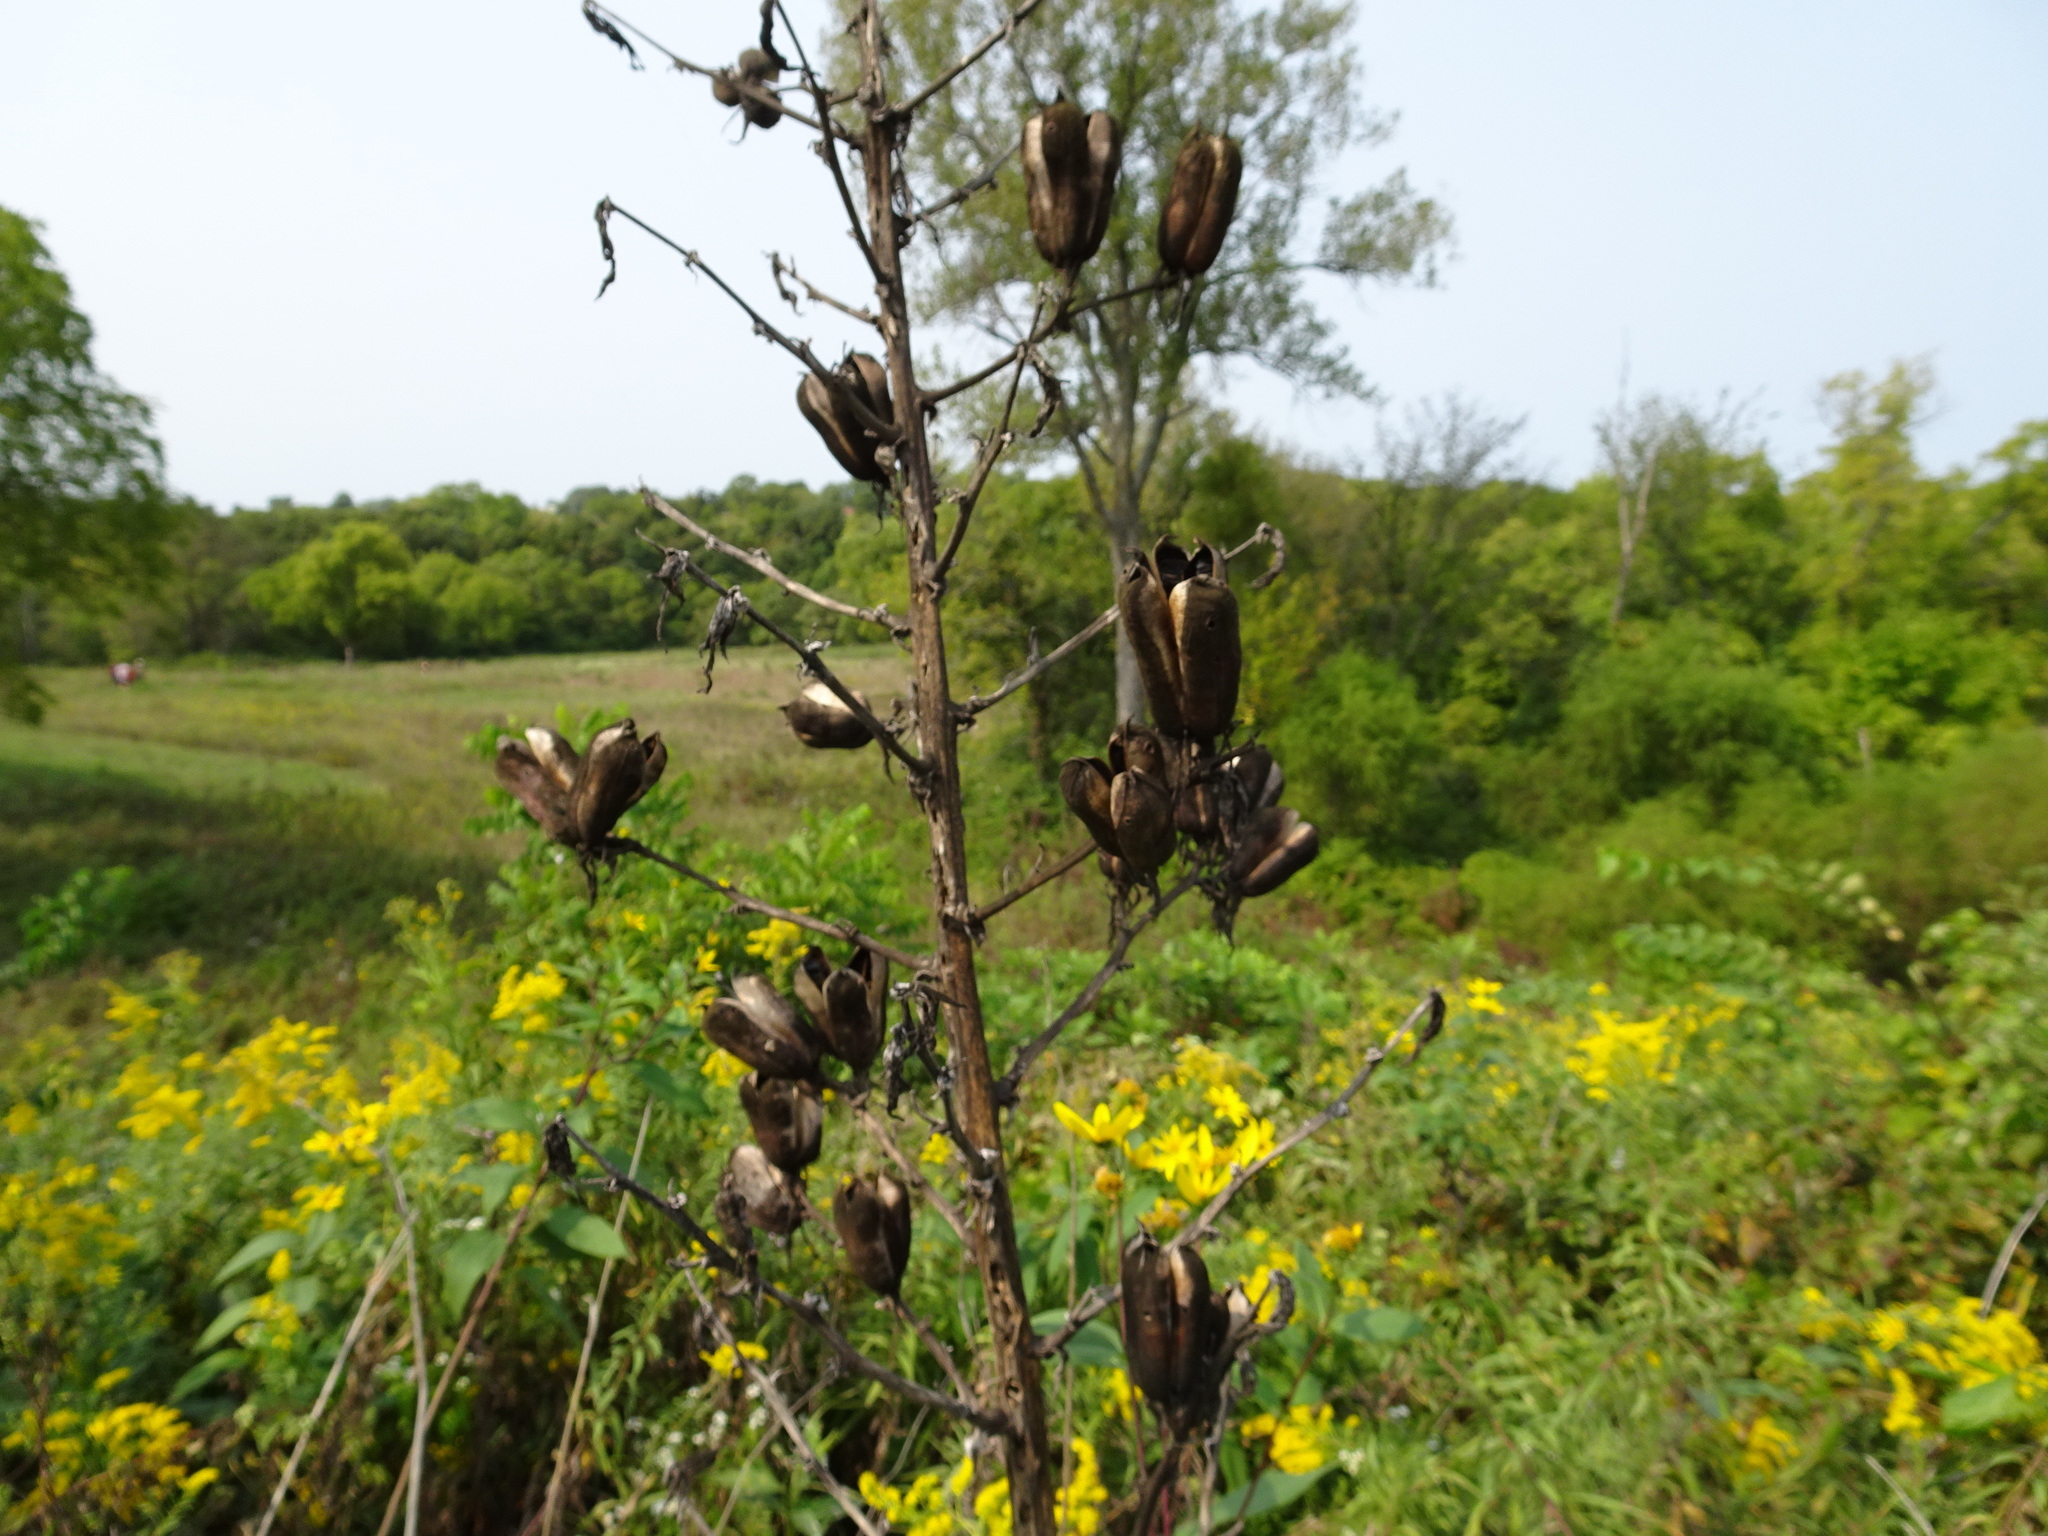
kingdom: Plantae
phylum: Tracheophyta
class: Liliopsida
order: Asparagales
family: Asparagaceae
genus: Yucca
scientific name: Yucca flaccida
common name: Adam's-needle
